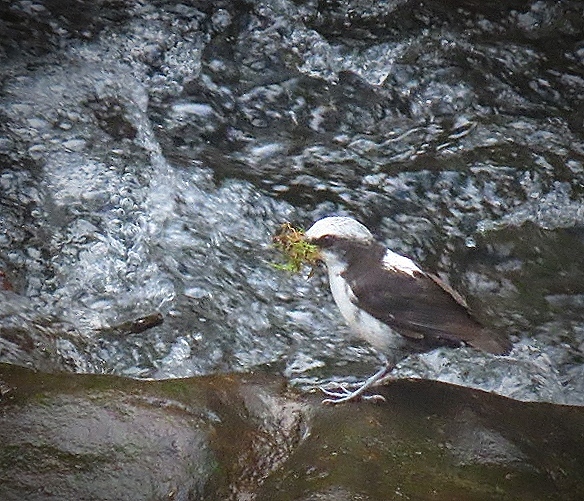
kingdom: Animalia
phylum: Chordata
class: Aves
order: Passeriformes
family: Cinclidae
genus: Cinclus
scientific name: Cinclus leucocephalus
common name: White-capped dipper
